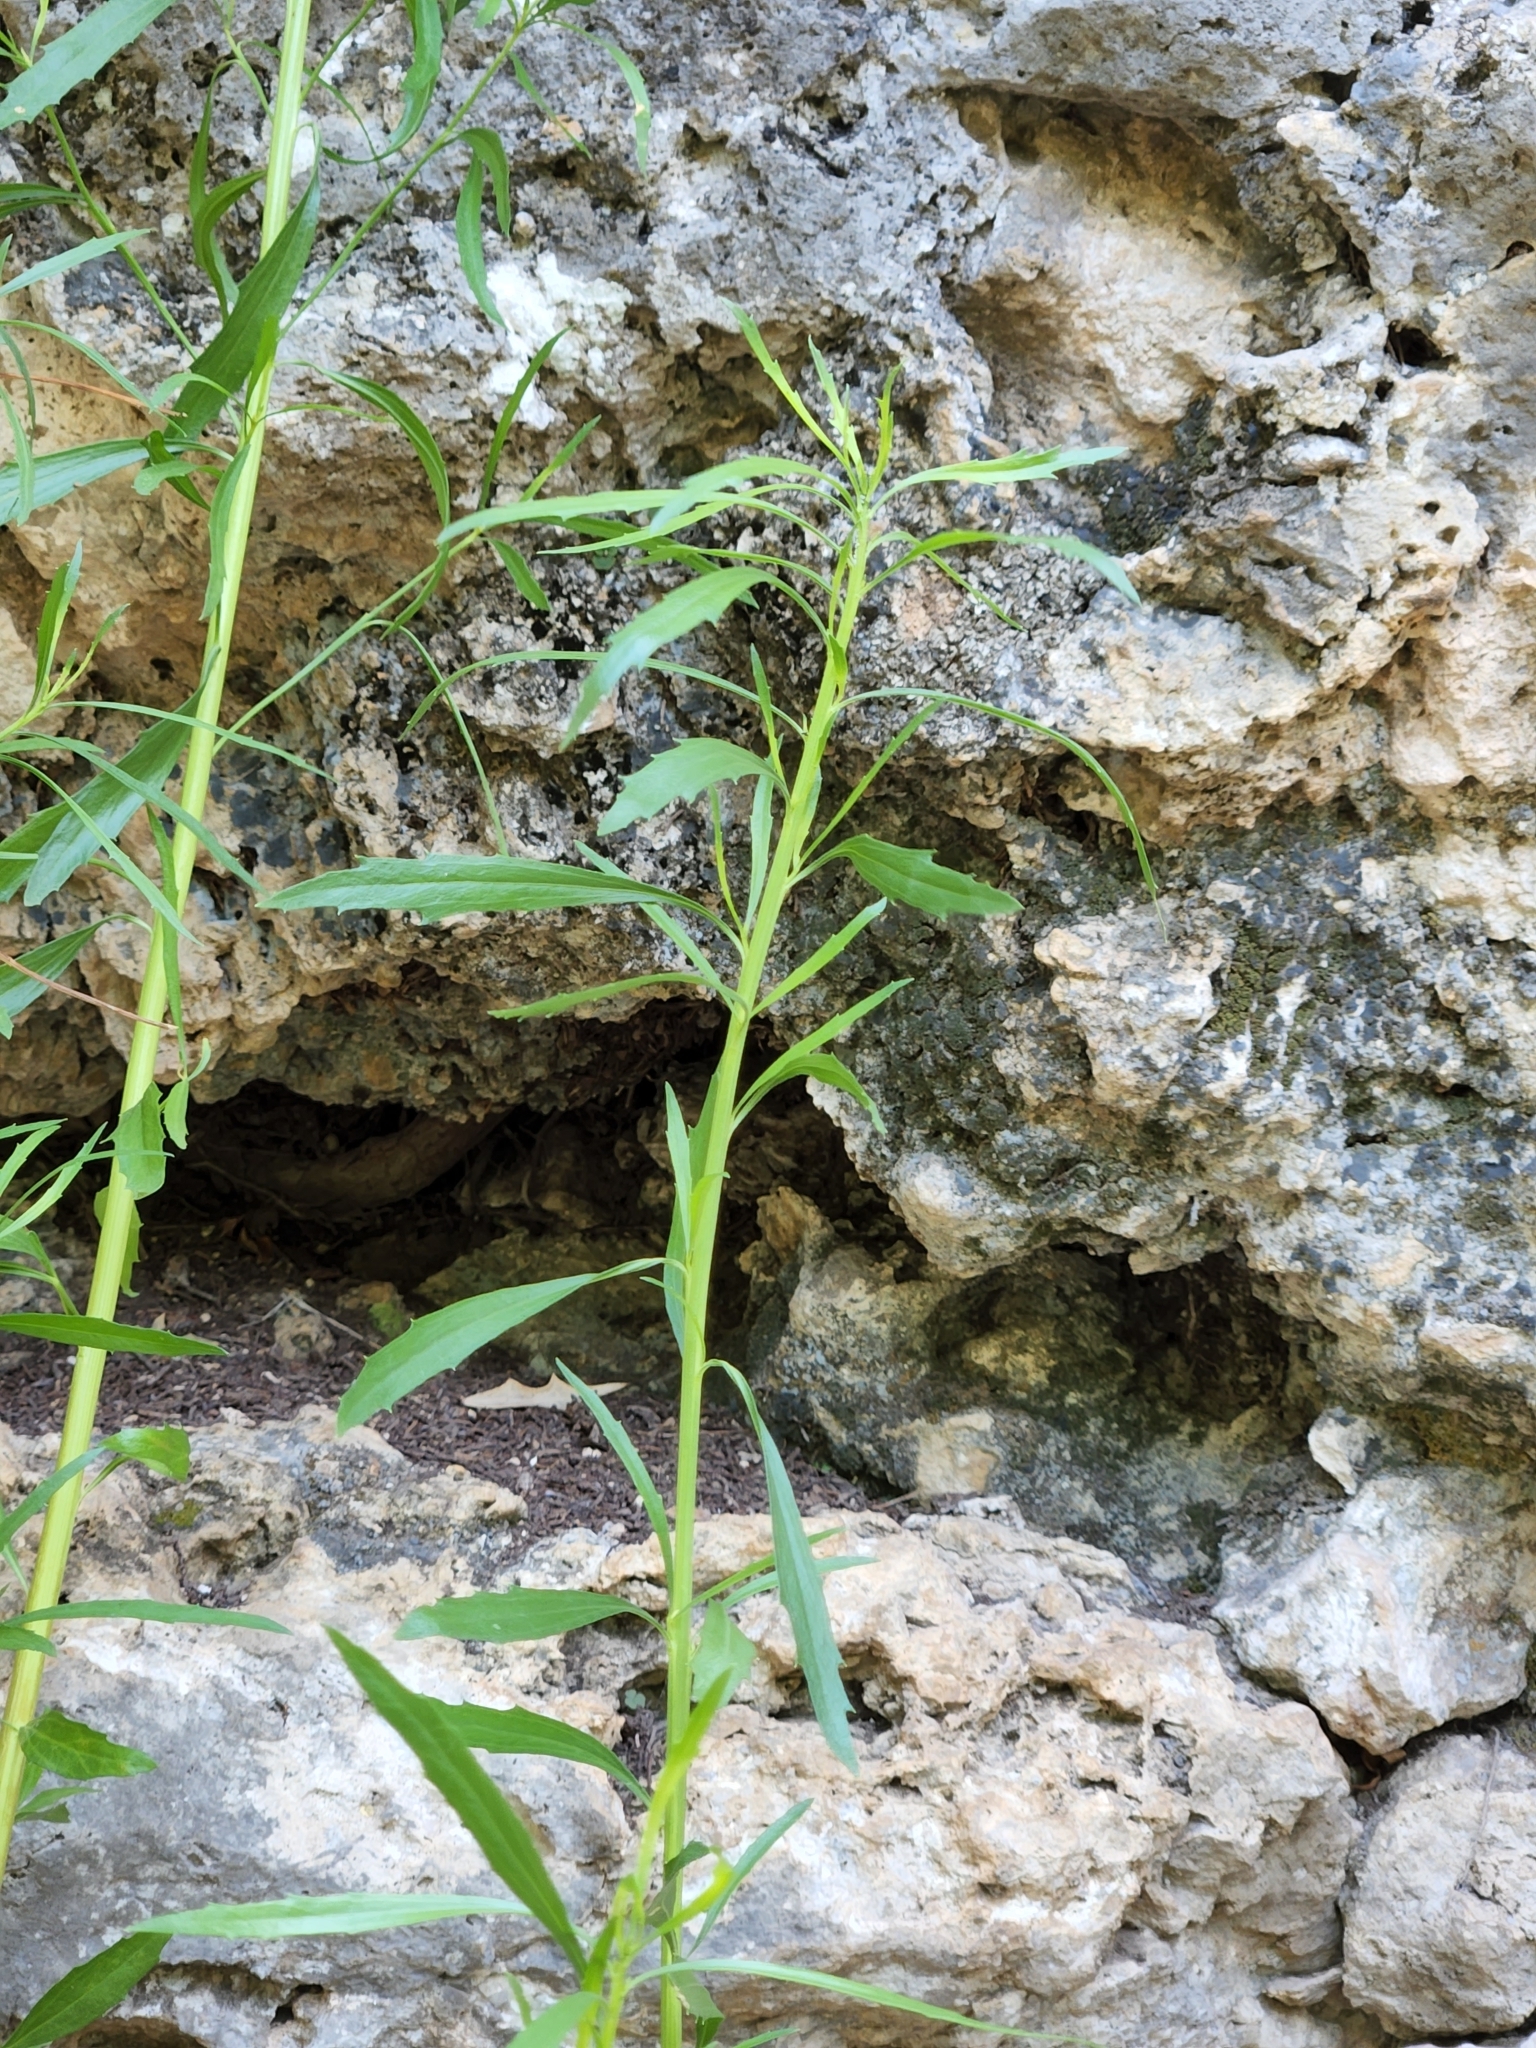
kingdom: Plantae
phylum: Tracheophyta
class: Magnoliopsida
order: Asterales
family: Asteraceae
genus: Baccharis
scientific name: Baccharis neglecta
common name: Roosevelt-weed
